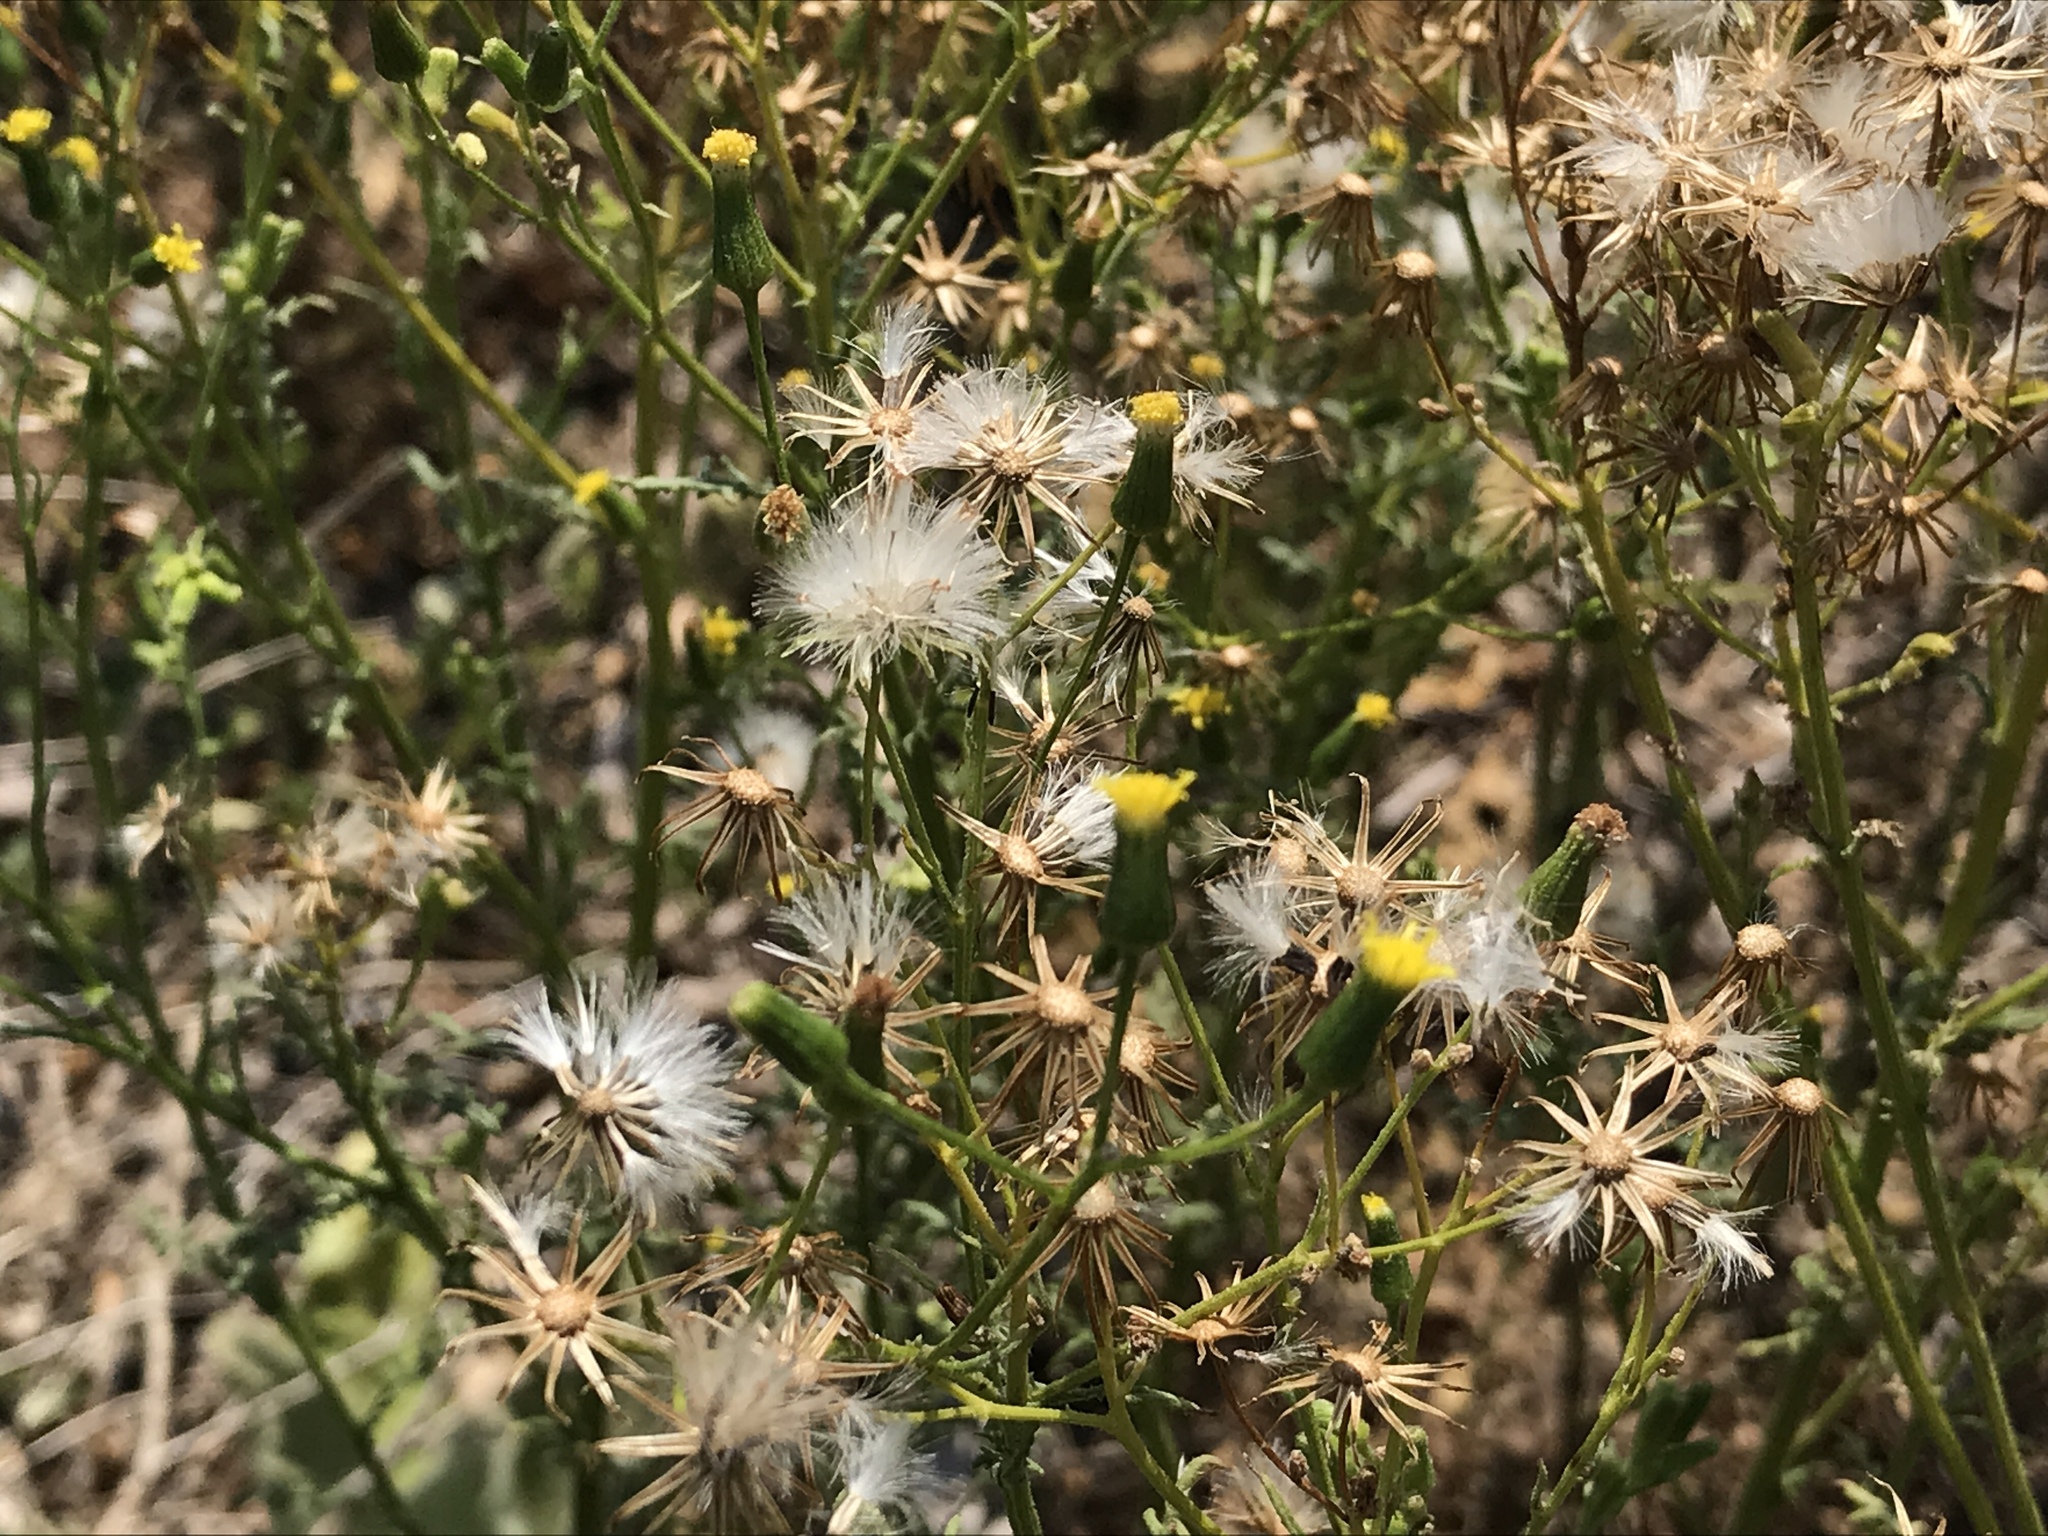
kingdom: Plantae
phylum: Tracheophyta
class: Magnoliopsida
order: Asterales
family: Asteraceae
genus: Senecio
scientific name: Senecio vulgaris
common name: Old-man-in-the-spring
